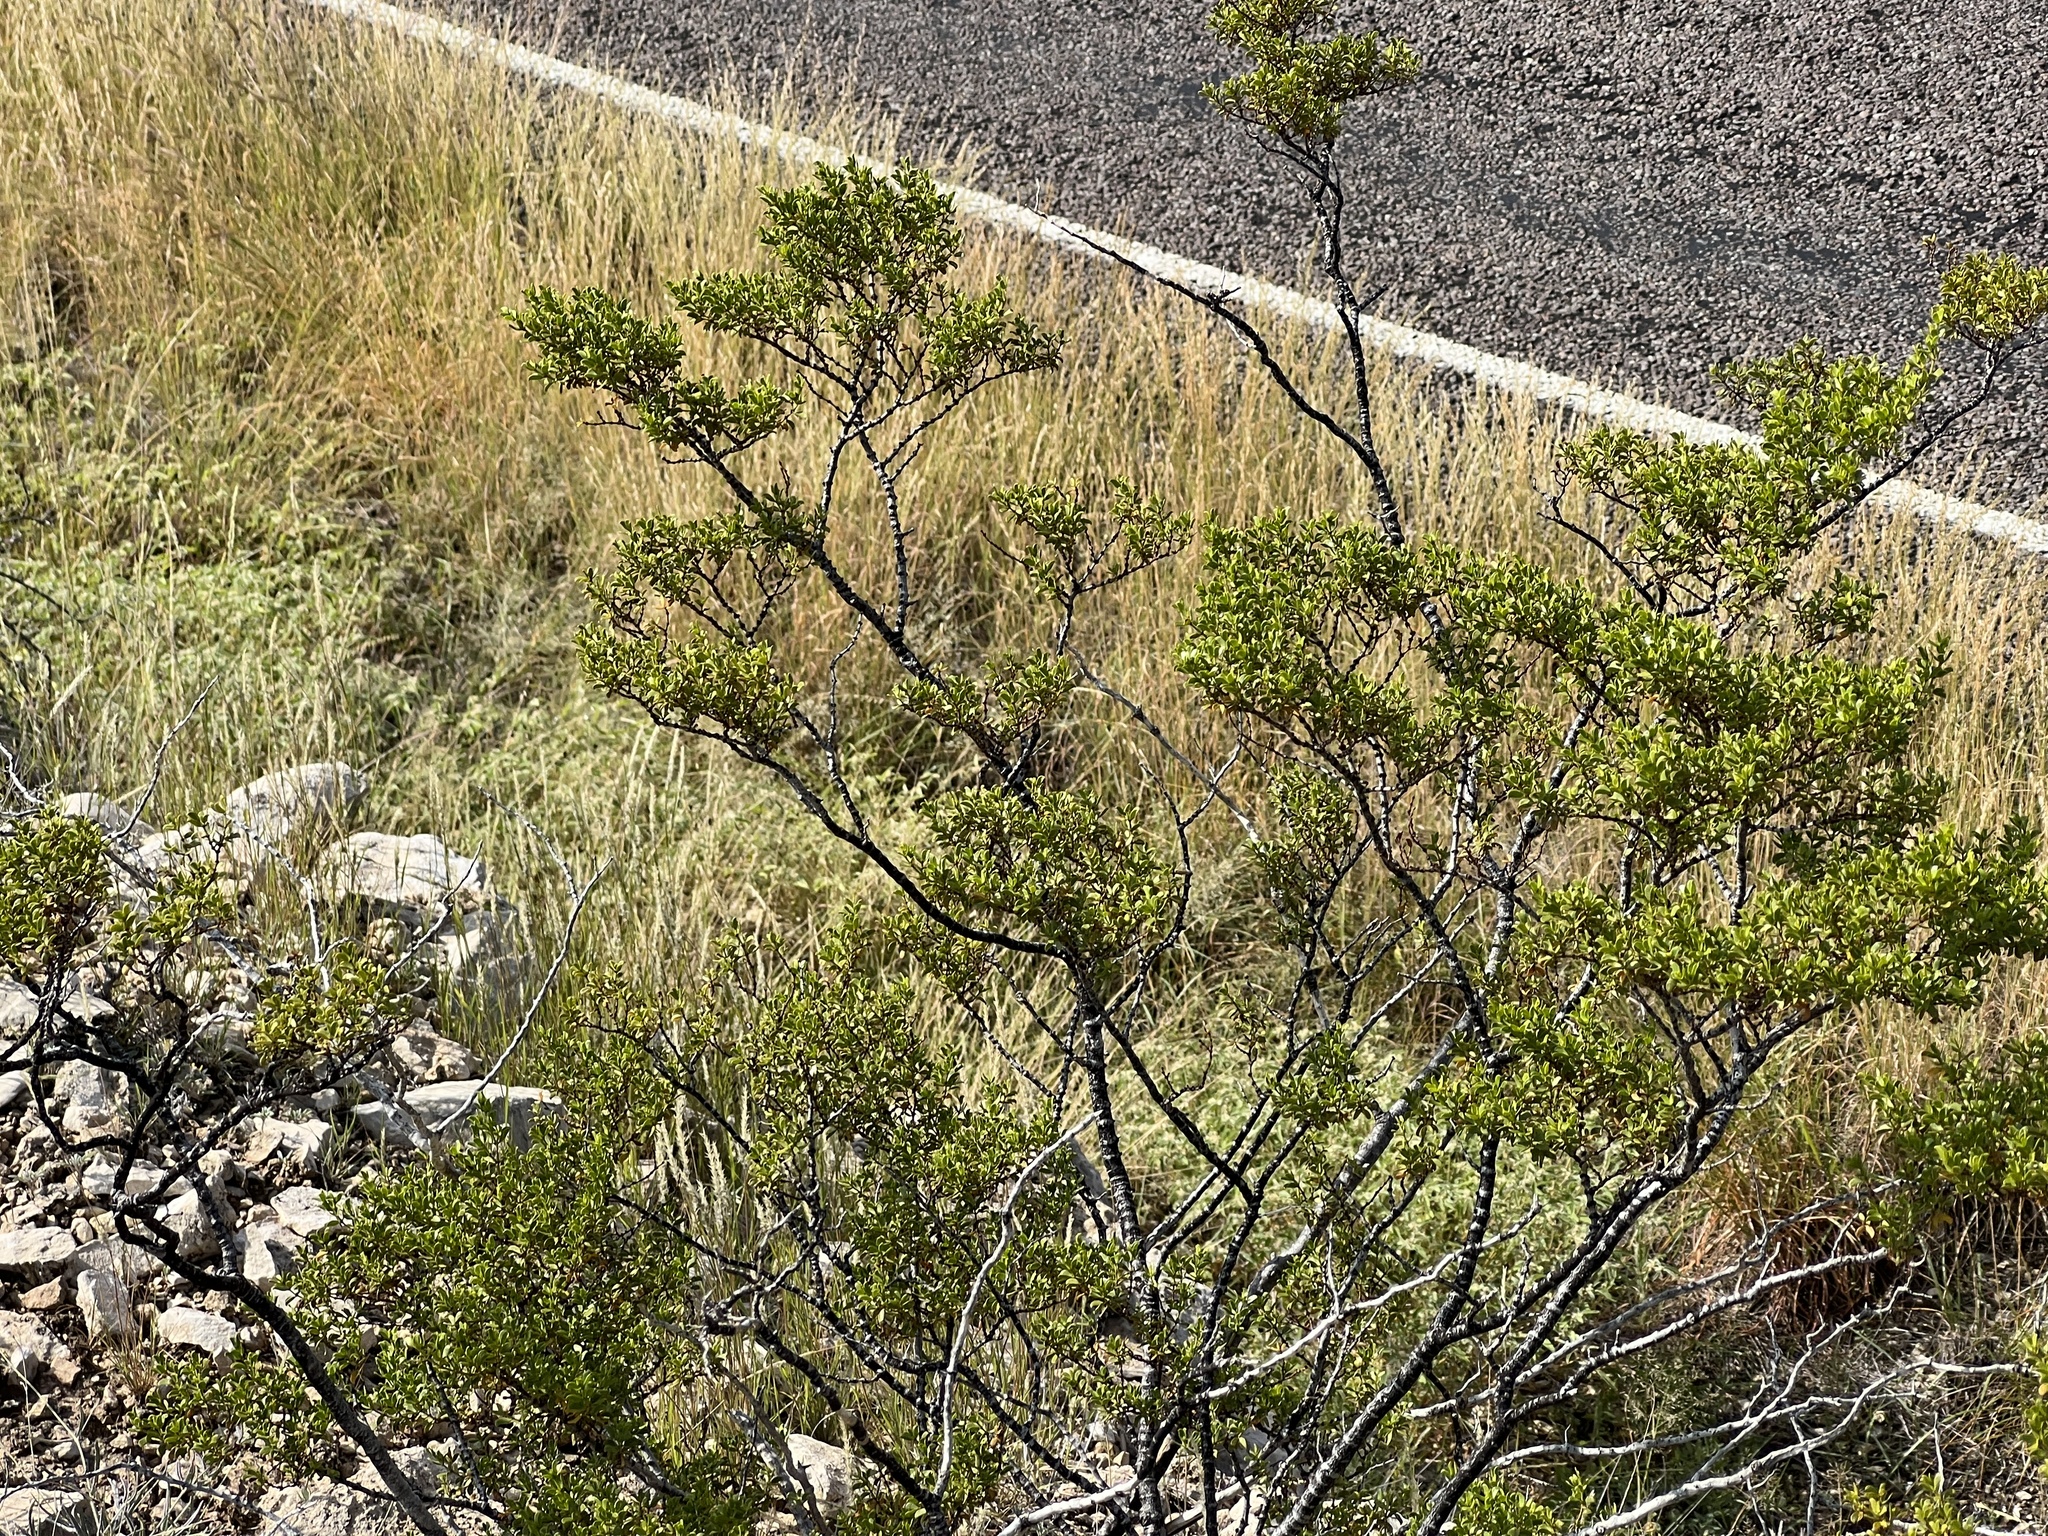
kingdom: Plantae
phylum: Tracheophyta
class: Magnoliopsida
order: Zygophyllales
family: Zygophyllaceae
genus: Larrea
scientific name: Larrea tridentata
